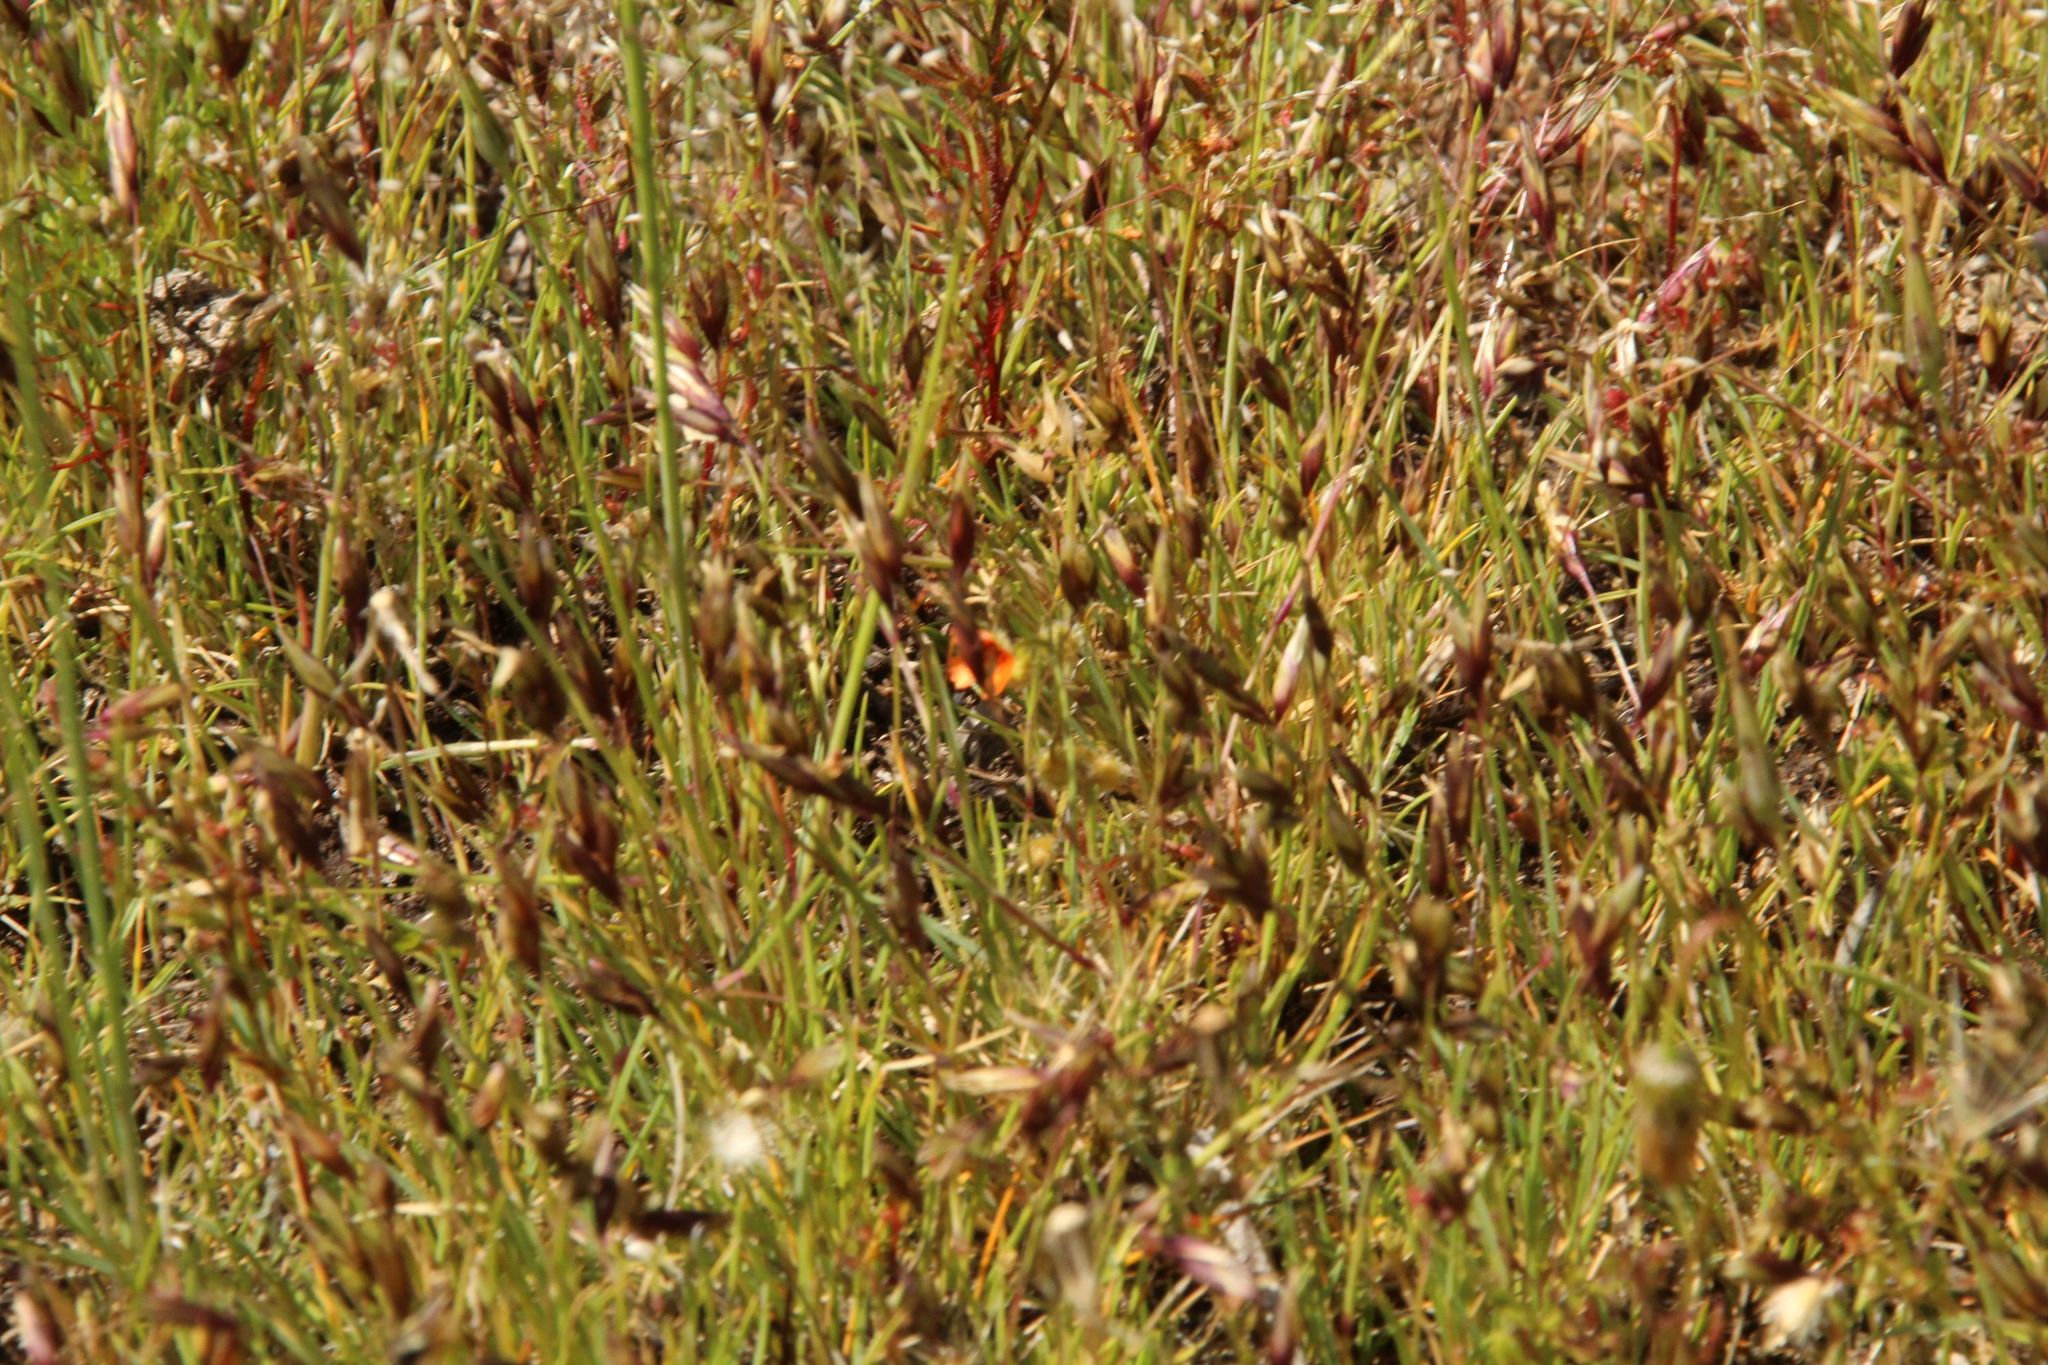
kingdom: Plantae
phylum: Tracheophyta
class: Magnoliopsida
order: Caryophyllales
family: Droseraceae
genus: Drosera
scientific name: Drosera glanduligera
